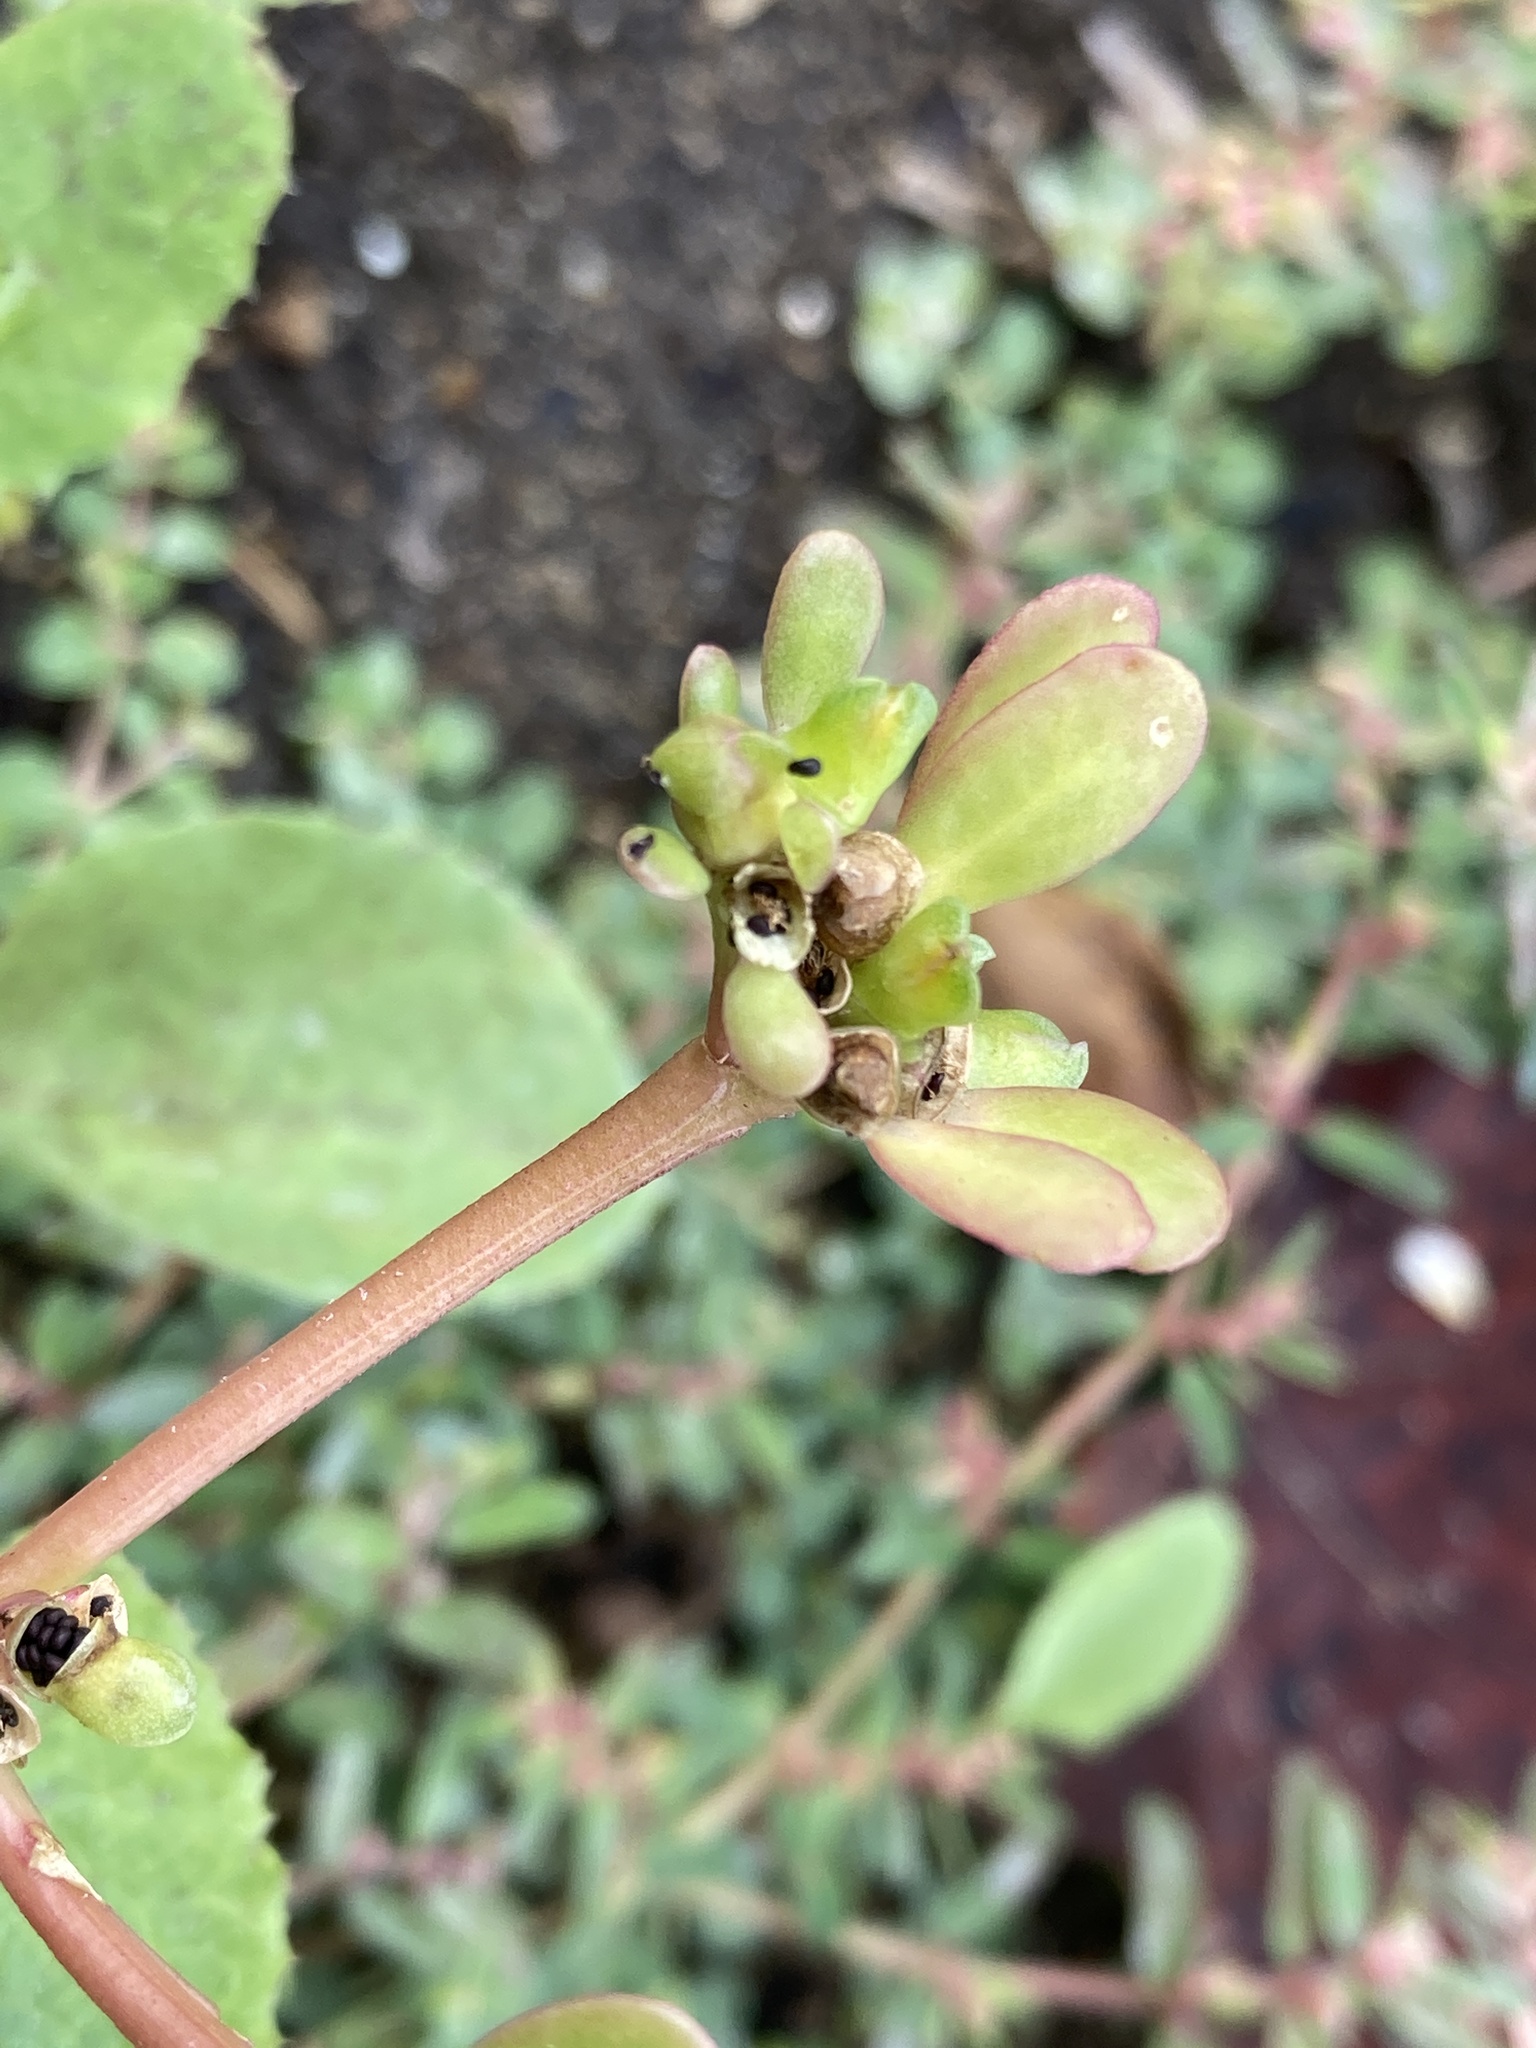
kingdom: Plantae
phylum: Tracheophyta
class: Magnoliopsida
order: Caryophyllales
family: Portulacaceae
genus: Portulaca
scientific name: Portulaca oleracea
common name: Common purslane
